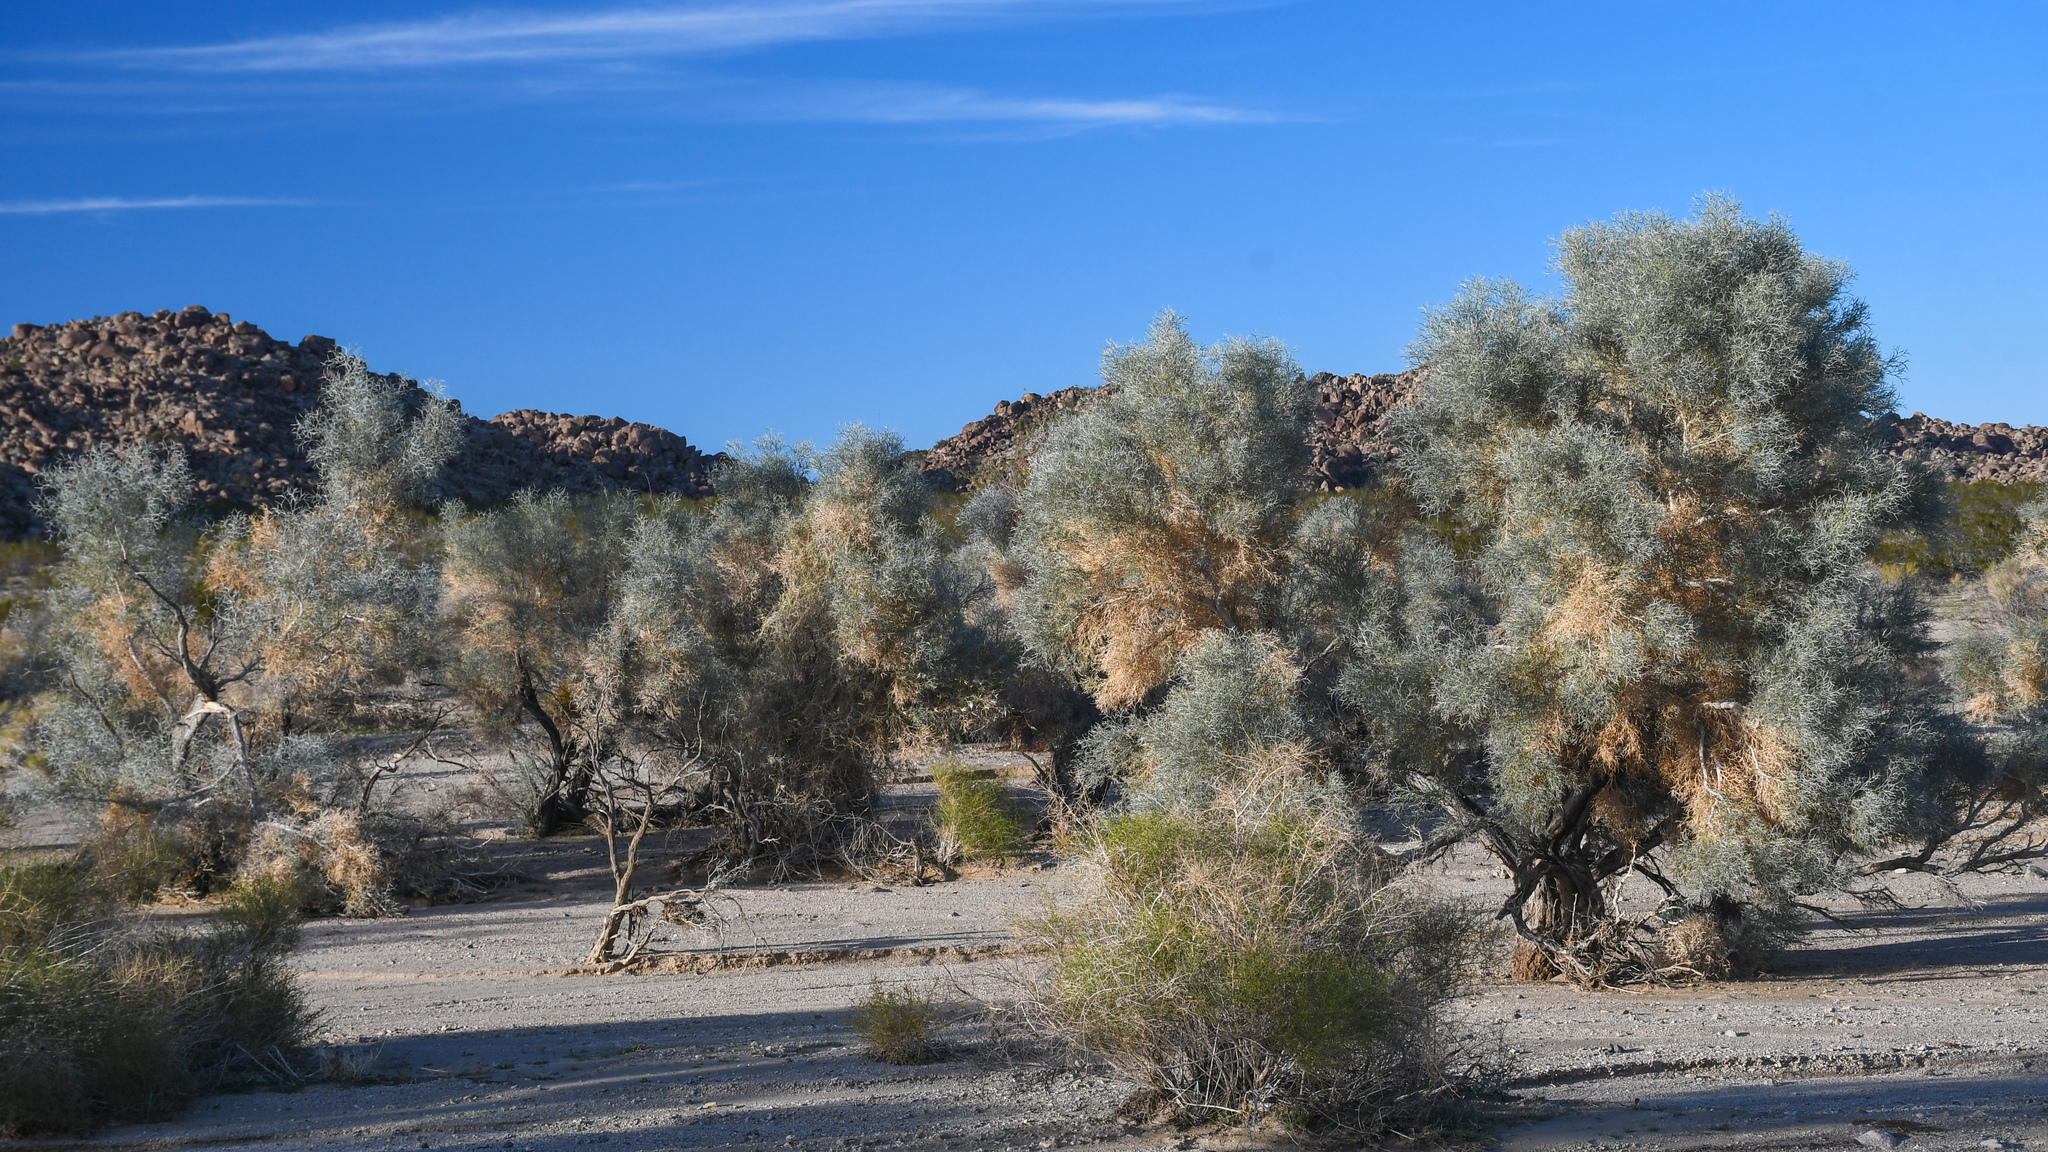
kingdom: Plantae
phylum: Tracheophyta
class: Magnoliopsida
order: Fabales
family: Fabaceae
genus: Psorothamnus
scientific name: Psorothamnus spinosus
